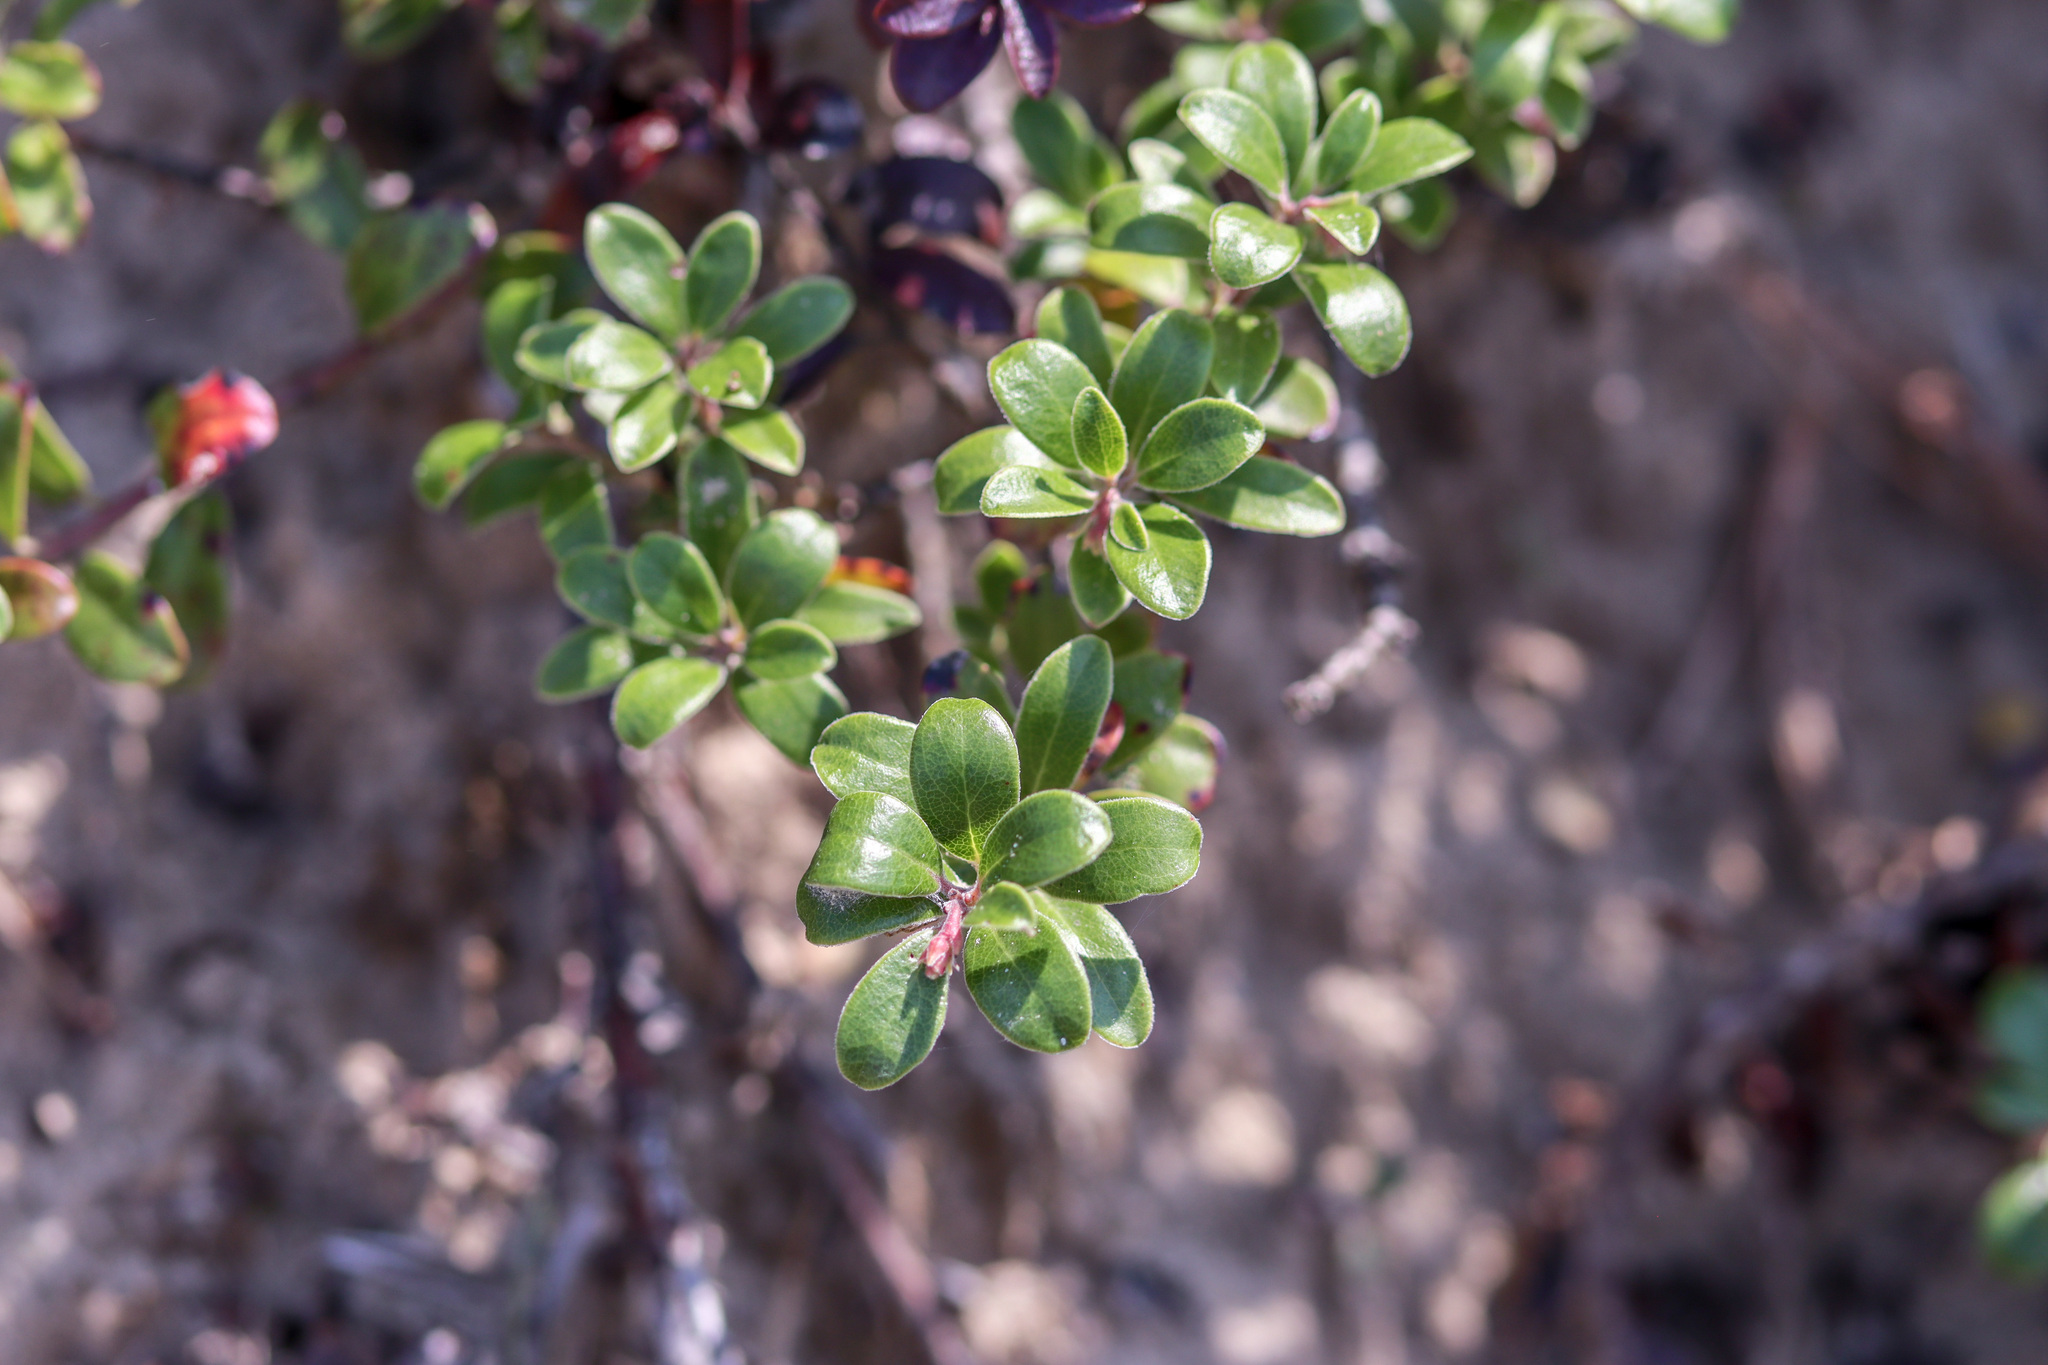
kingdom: Plantae
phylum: Tracheophyta
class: Magnoliopsida
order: Ericales
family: Ericaceae
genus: Arctostaphylos
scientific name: Arctostaphylos uva-ursi
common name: Bearberry
